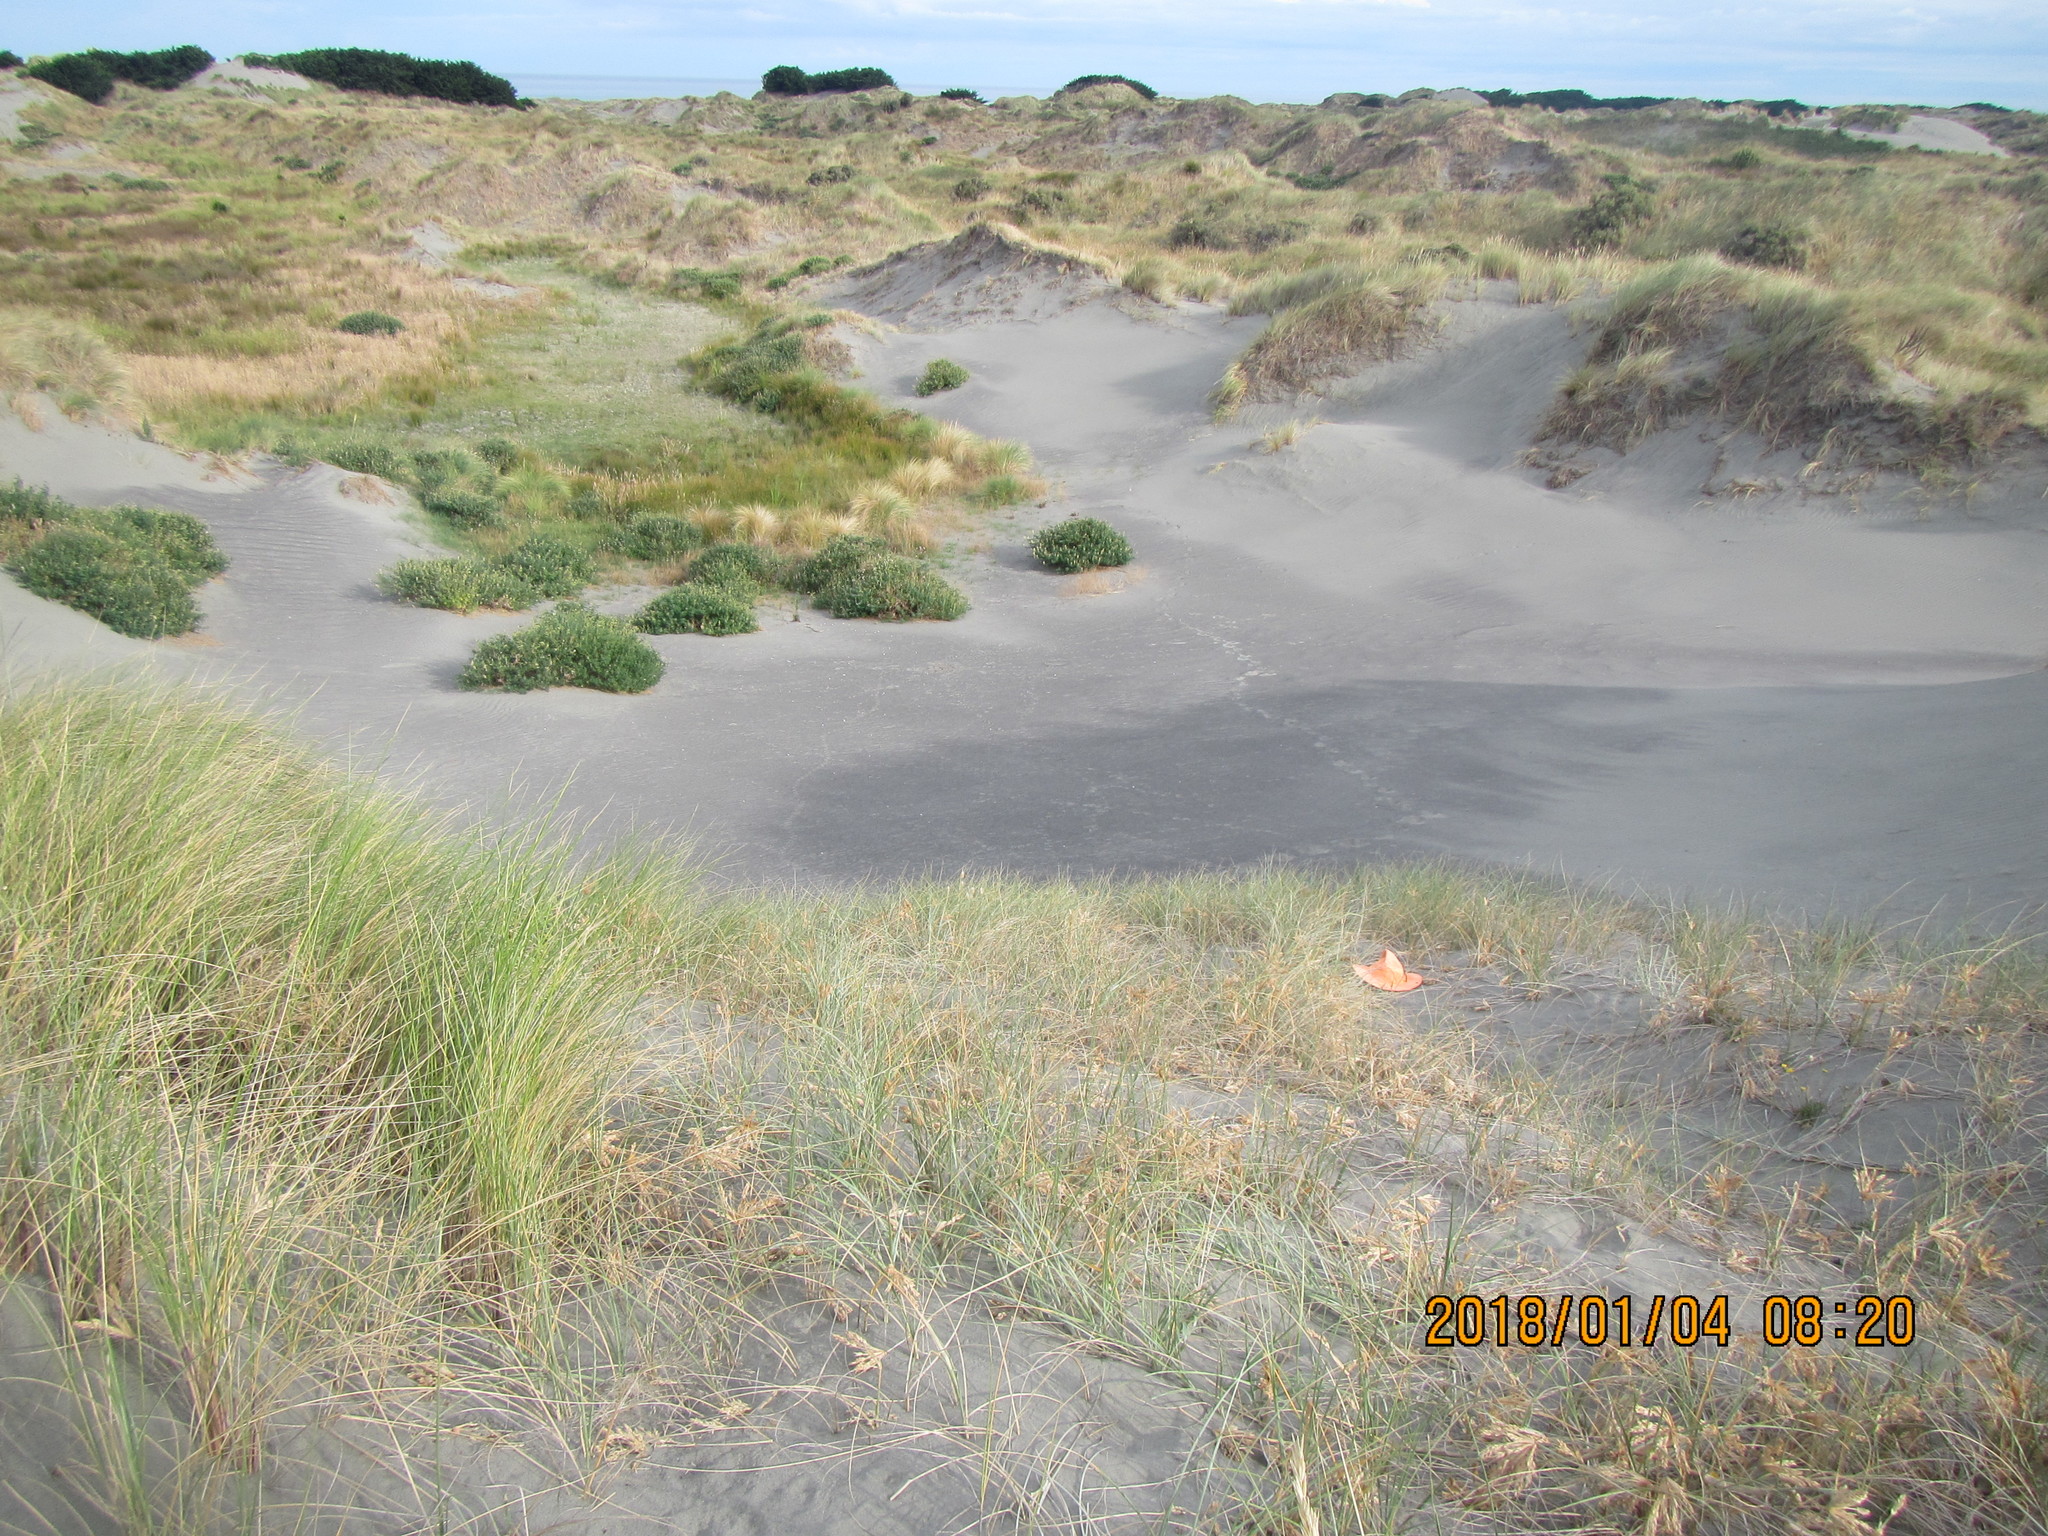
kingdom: Animalia
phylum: Arthropoda
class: Arachnida
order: Araneae
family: Theridiidae
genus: Latrodectus
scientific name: Latrodectus katipo
